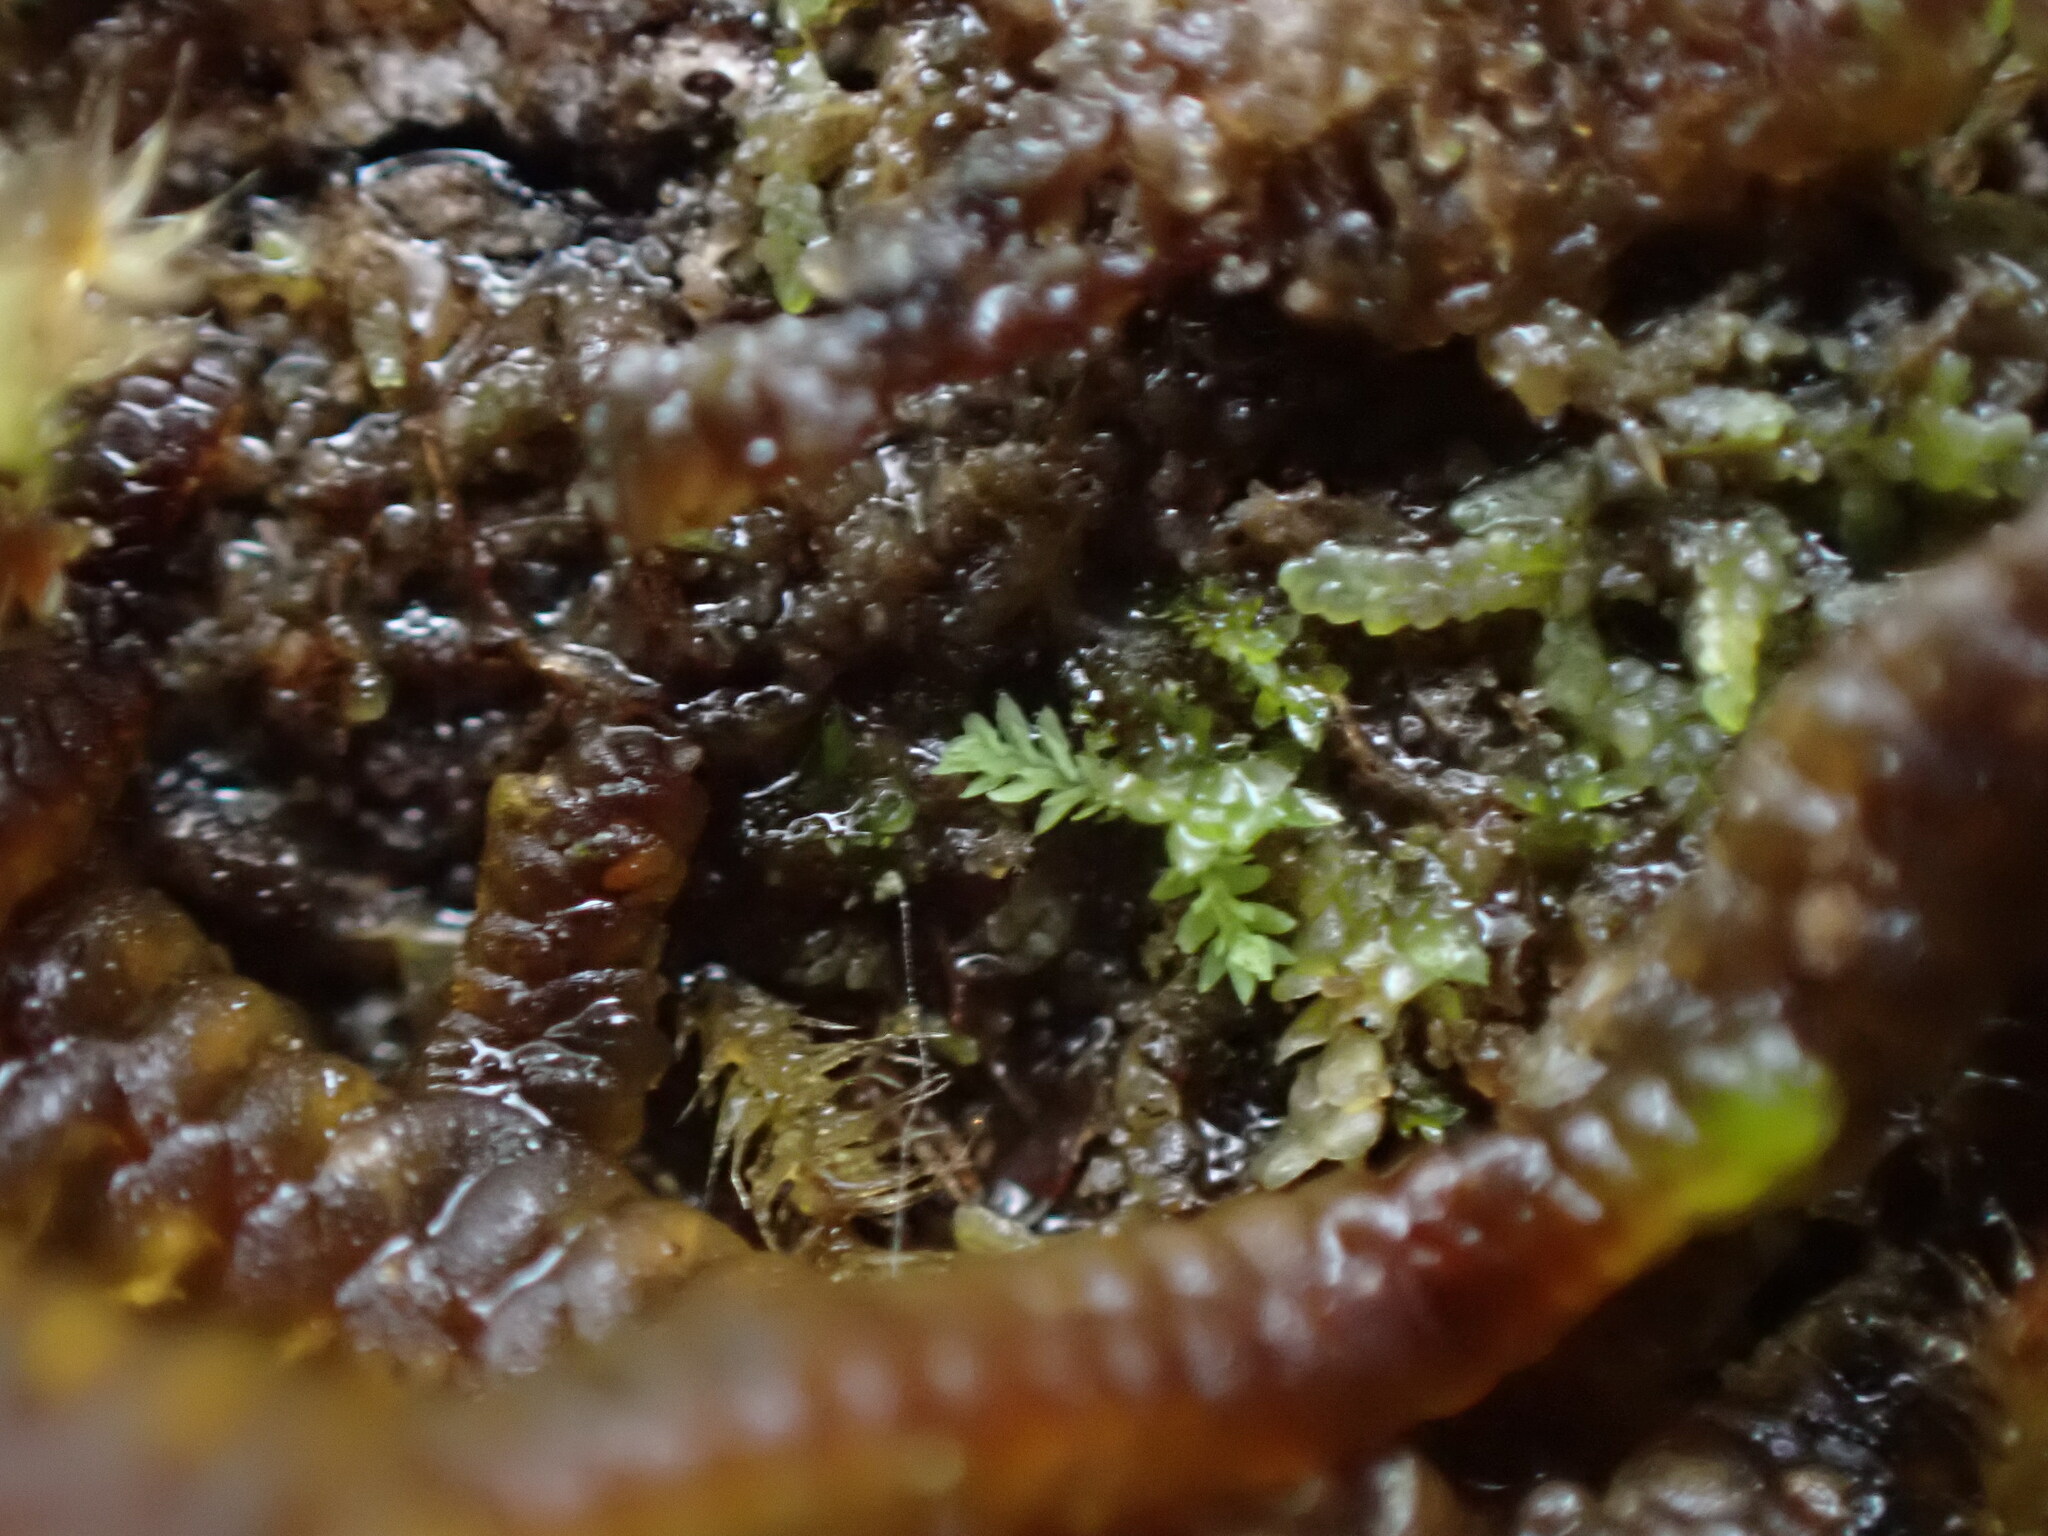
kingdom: Plantae
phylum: Marchantiophyta
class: Jungermanniopsida
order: Jungermanniales
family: Scapaniaceae
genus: Douinia
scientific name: Douinia ovata
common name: Waxy earwort
